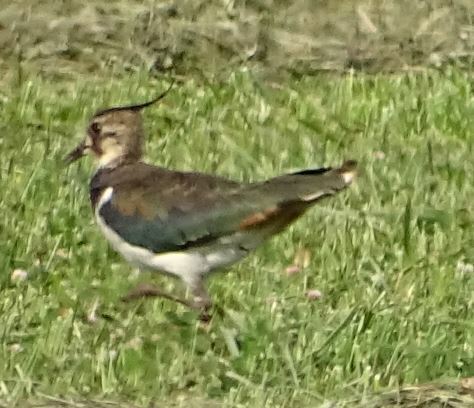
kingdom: Animalia
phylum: Chordata
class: Aves
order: Charadriiformes
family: Charadriidae
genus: Vanellus
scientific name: Vanellus vanellus
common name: Northern lapwing
